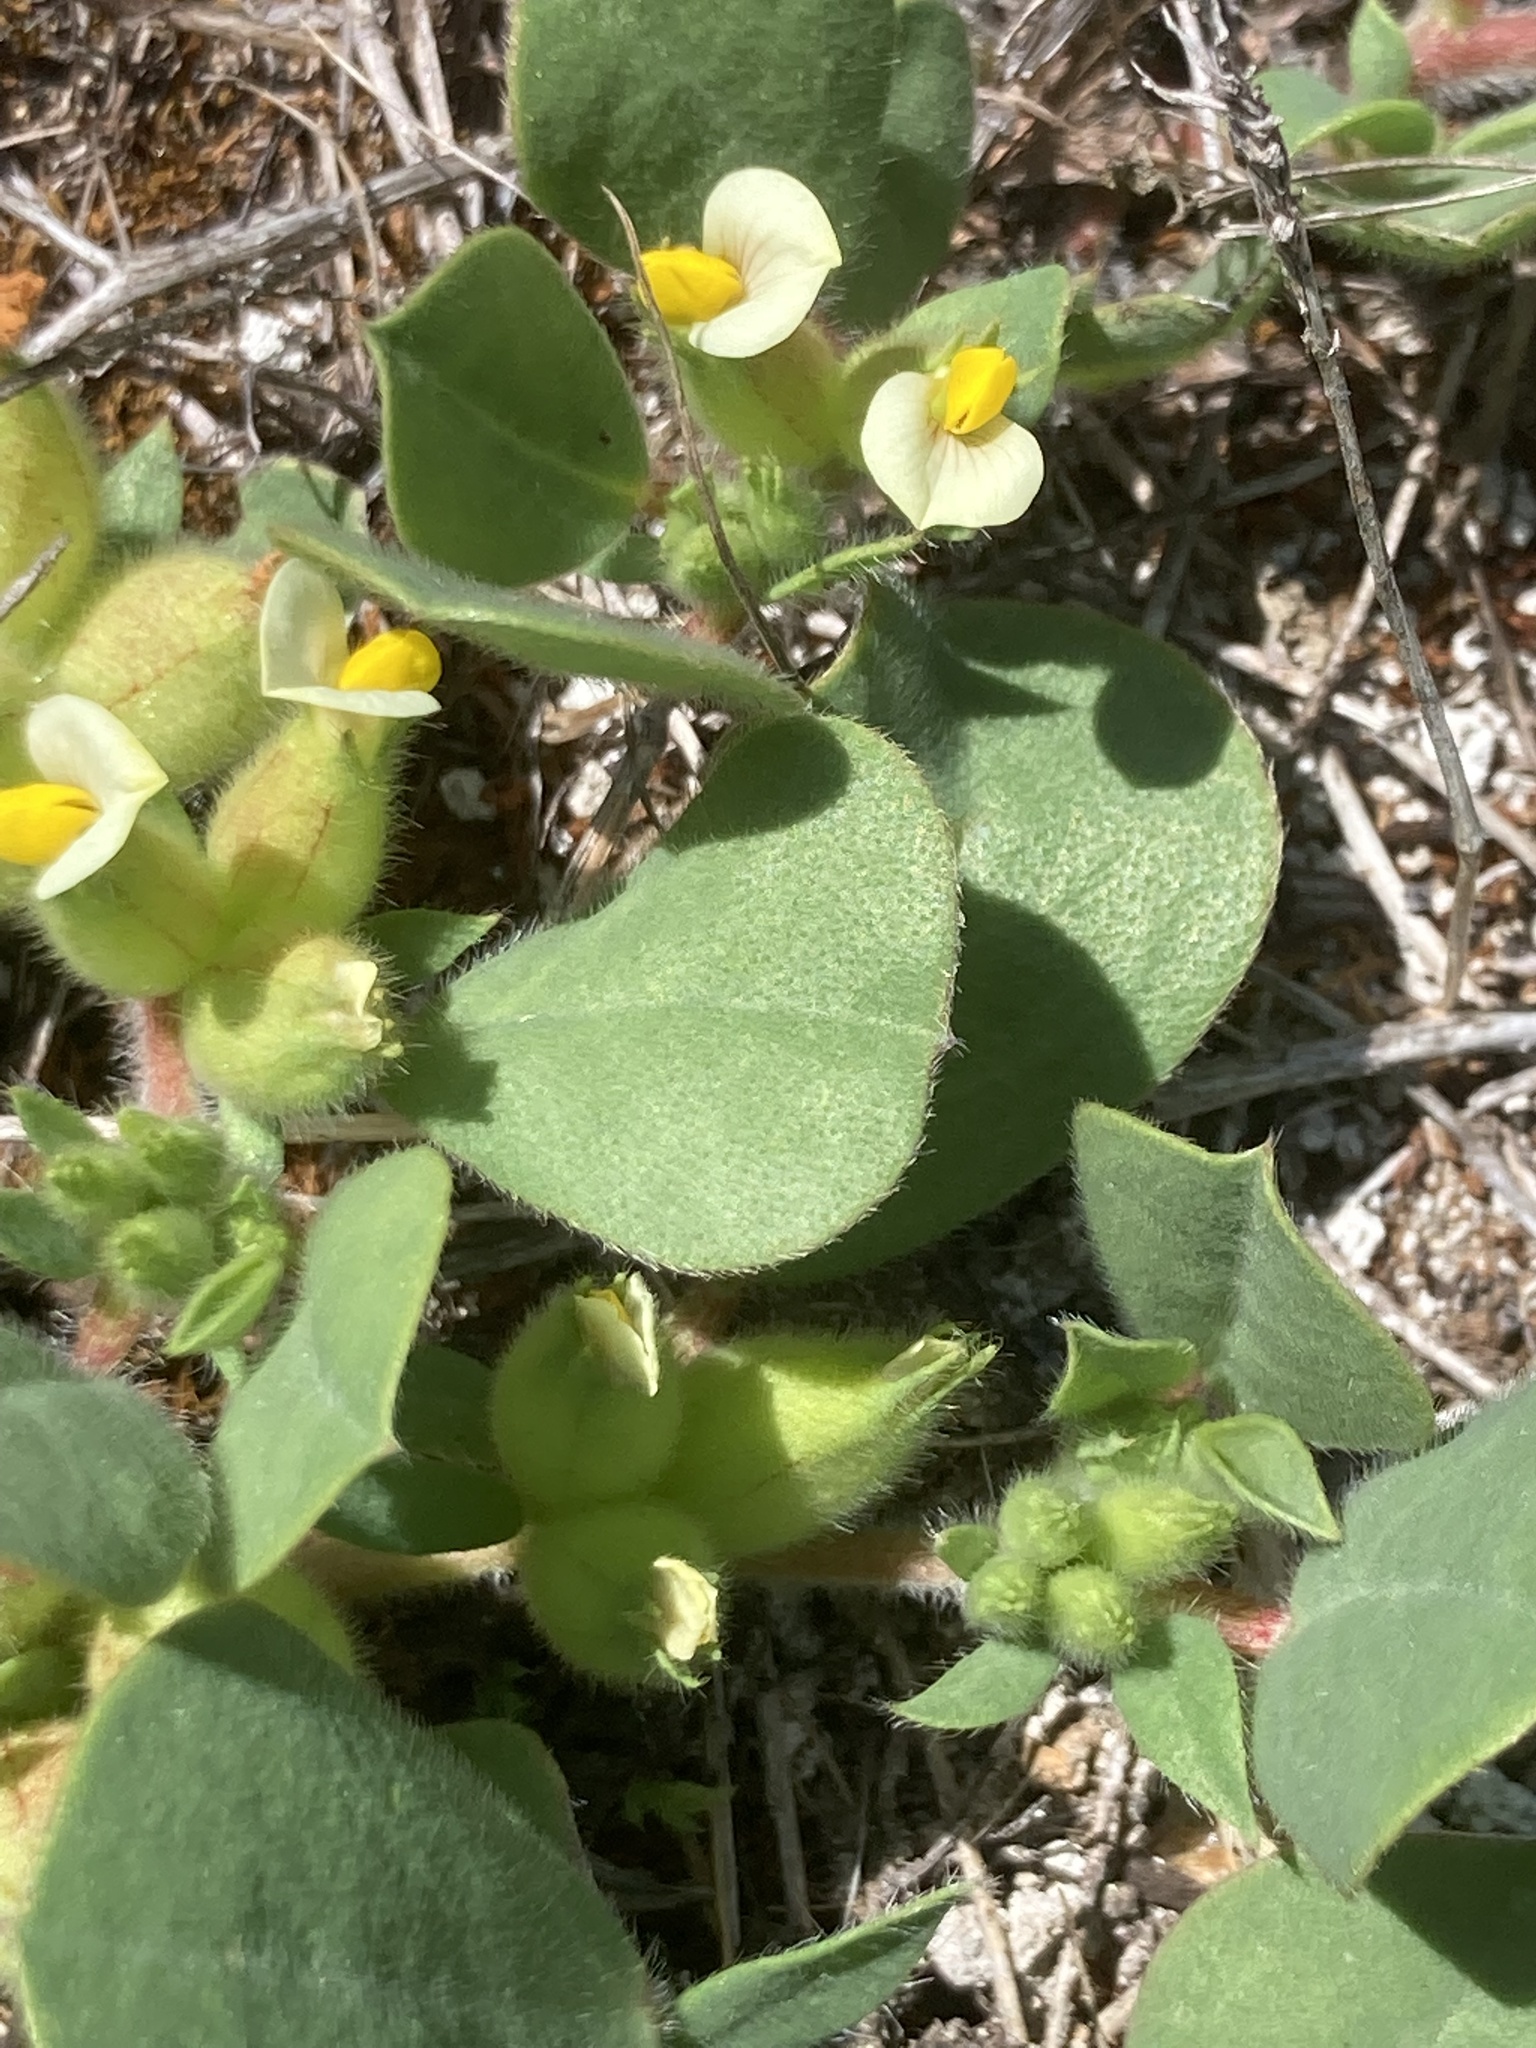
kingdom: Plantae
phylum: Tracheophyta
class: Magnoliopsida
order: Fabales
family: Fabaceae
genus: Tripodion
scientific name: Tripodion tetraphyllum
